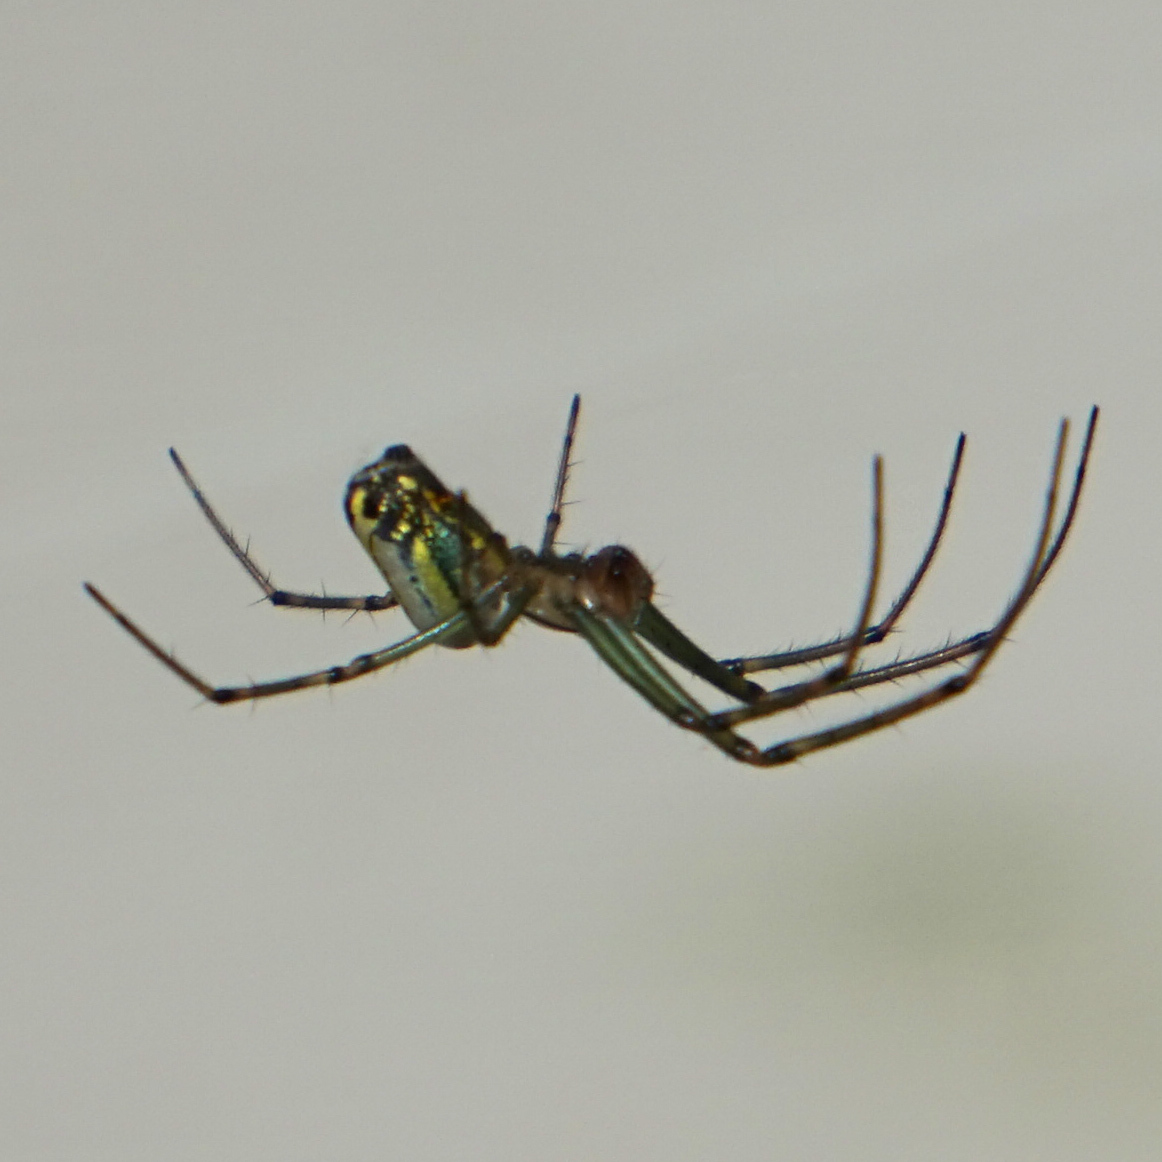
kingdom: Animalia
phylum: Arthropoda
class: Arachnida
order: Araneae
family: Tetragnathidae
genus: Leucauge
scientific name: Leucauge venusta
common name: Longjawed orb weavers
